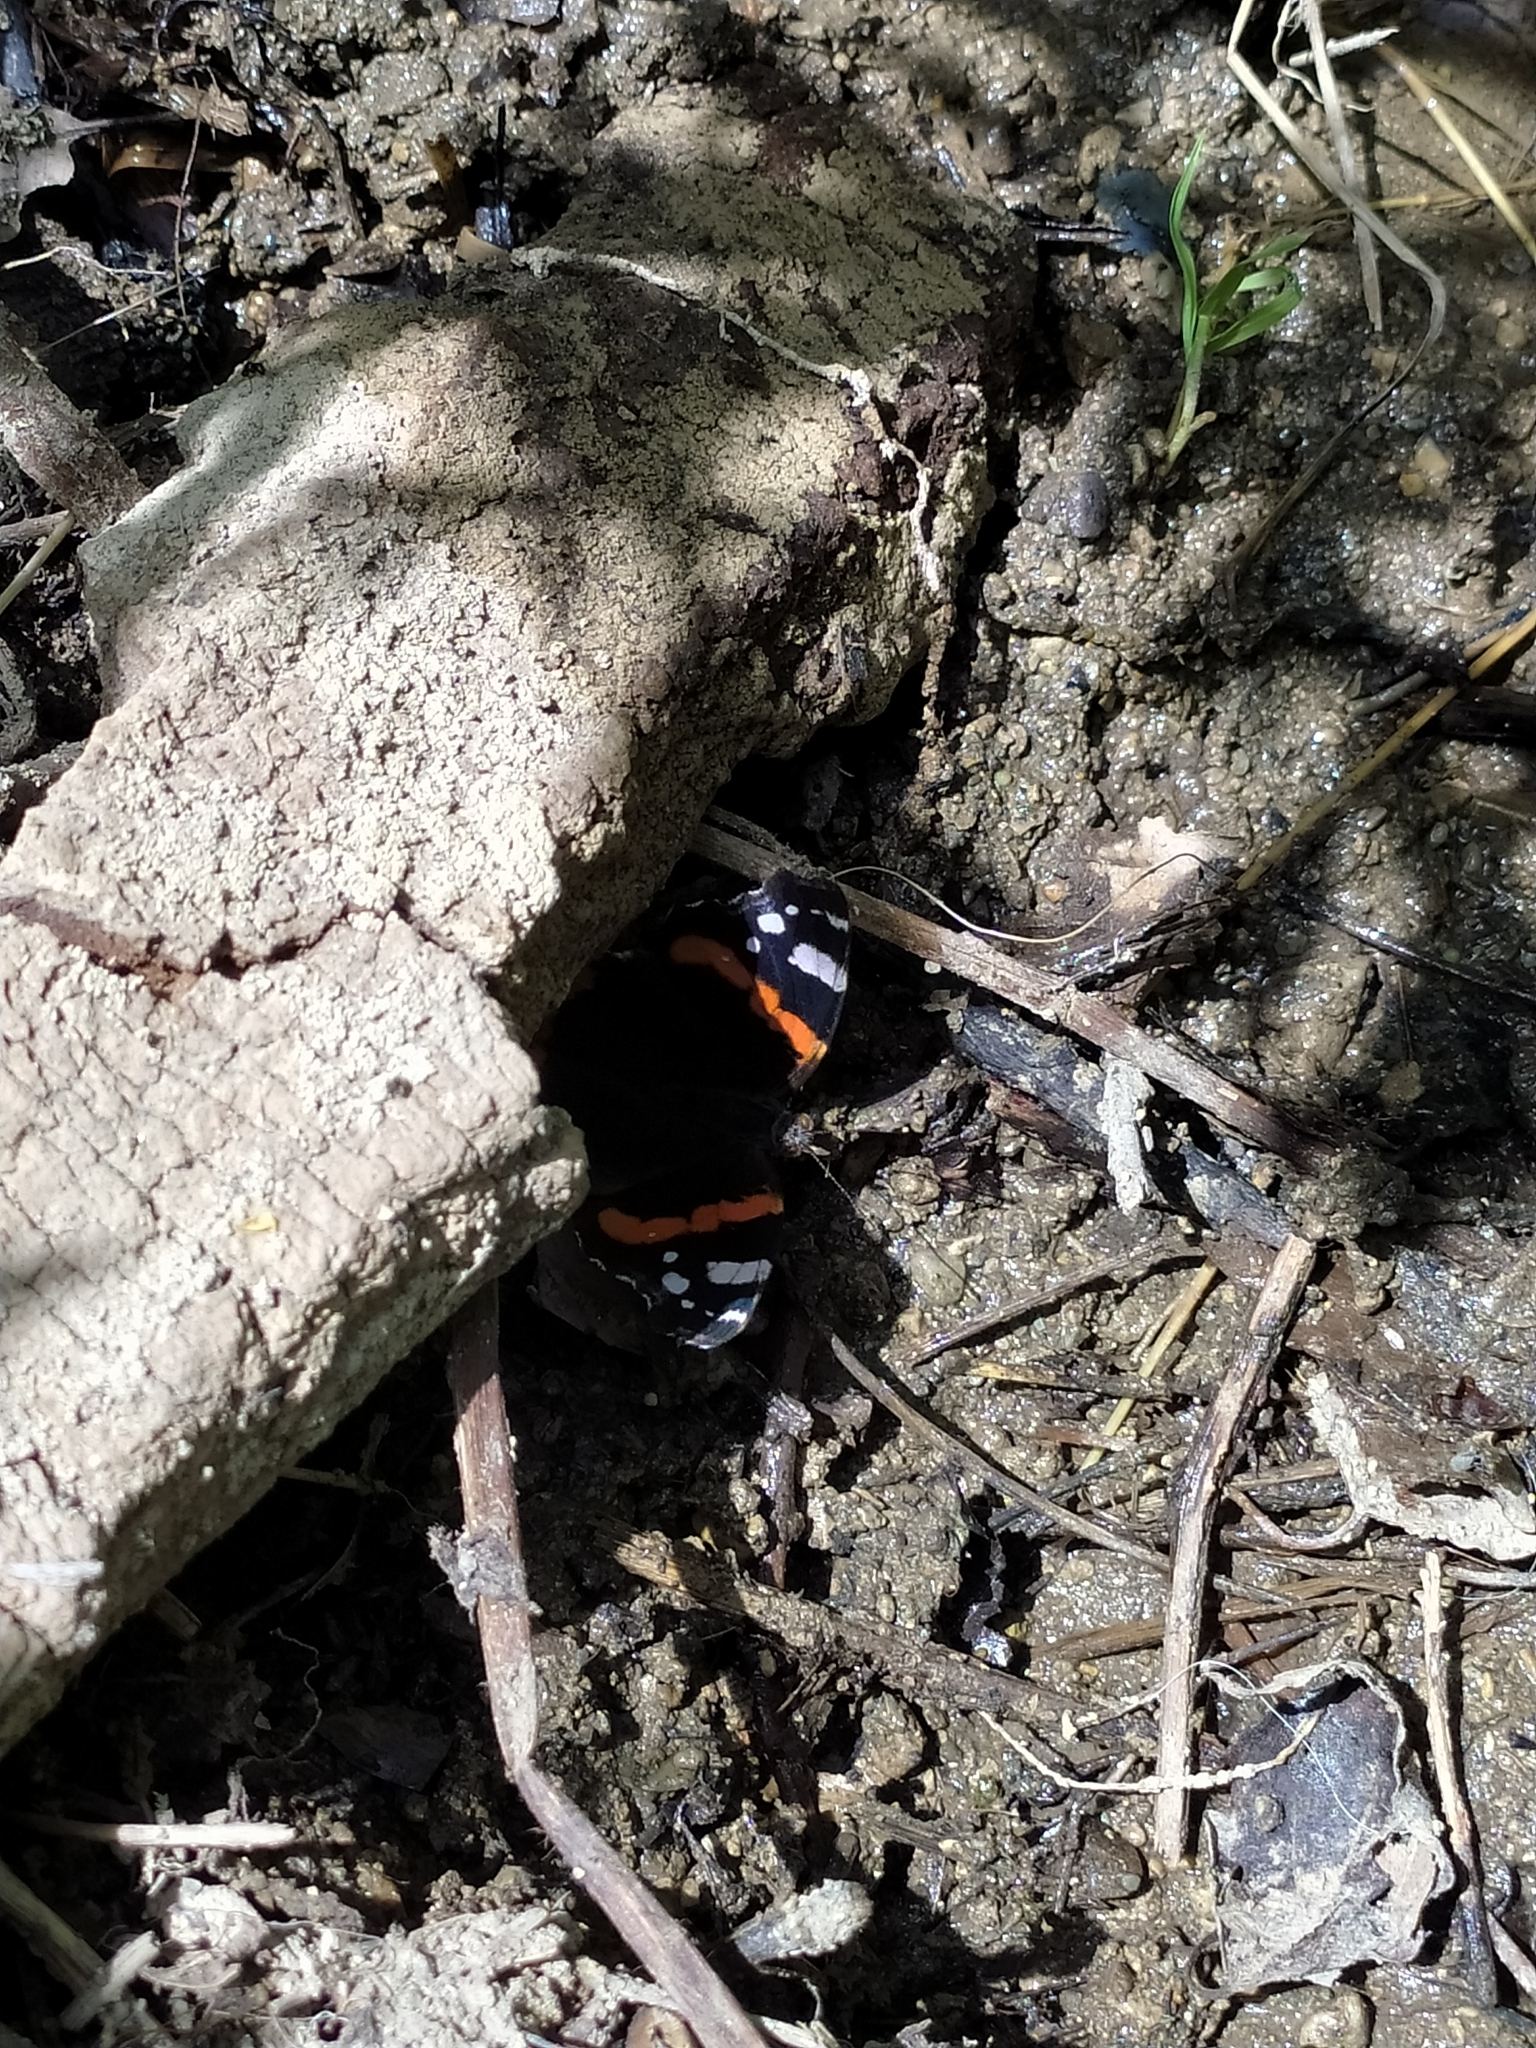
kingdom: Animalia
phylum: Arthropoda
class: Insecta
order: Lepidoptera
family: Nymphalidae
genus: Vanessa
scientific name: Vanessa atalanta
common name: Red admiral
